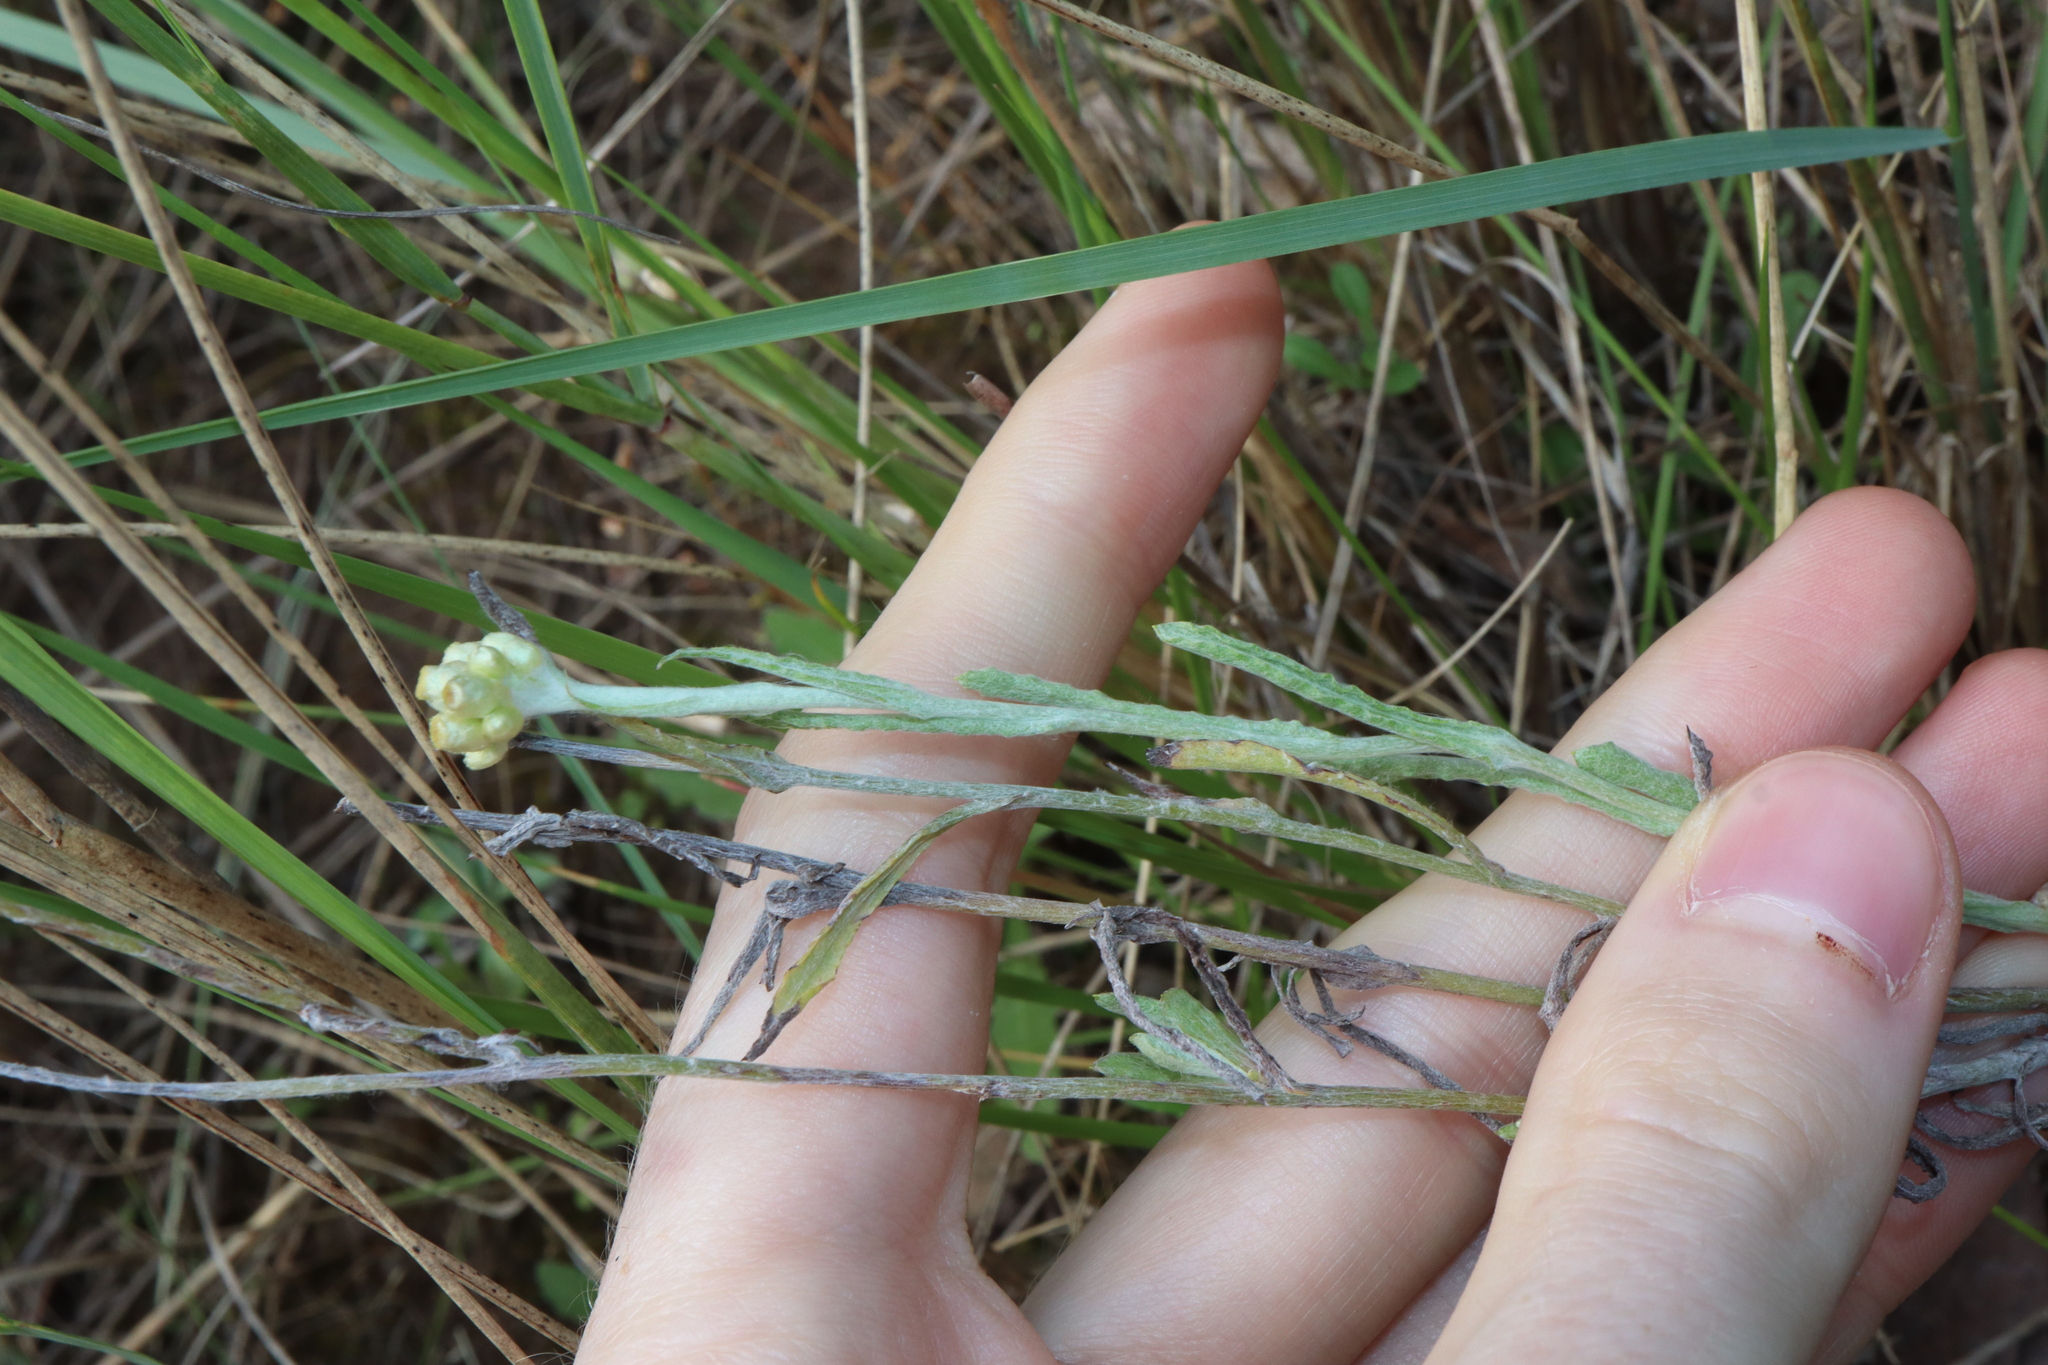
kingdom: Plantae
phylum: Tracheophyta
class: Magnoliopsida
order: Asterales
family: Asteraceae
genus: Helichrysum
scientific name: Helichrysum luteoalbum
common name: Daisy
